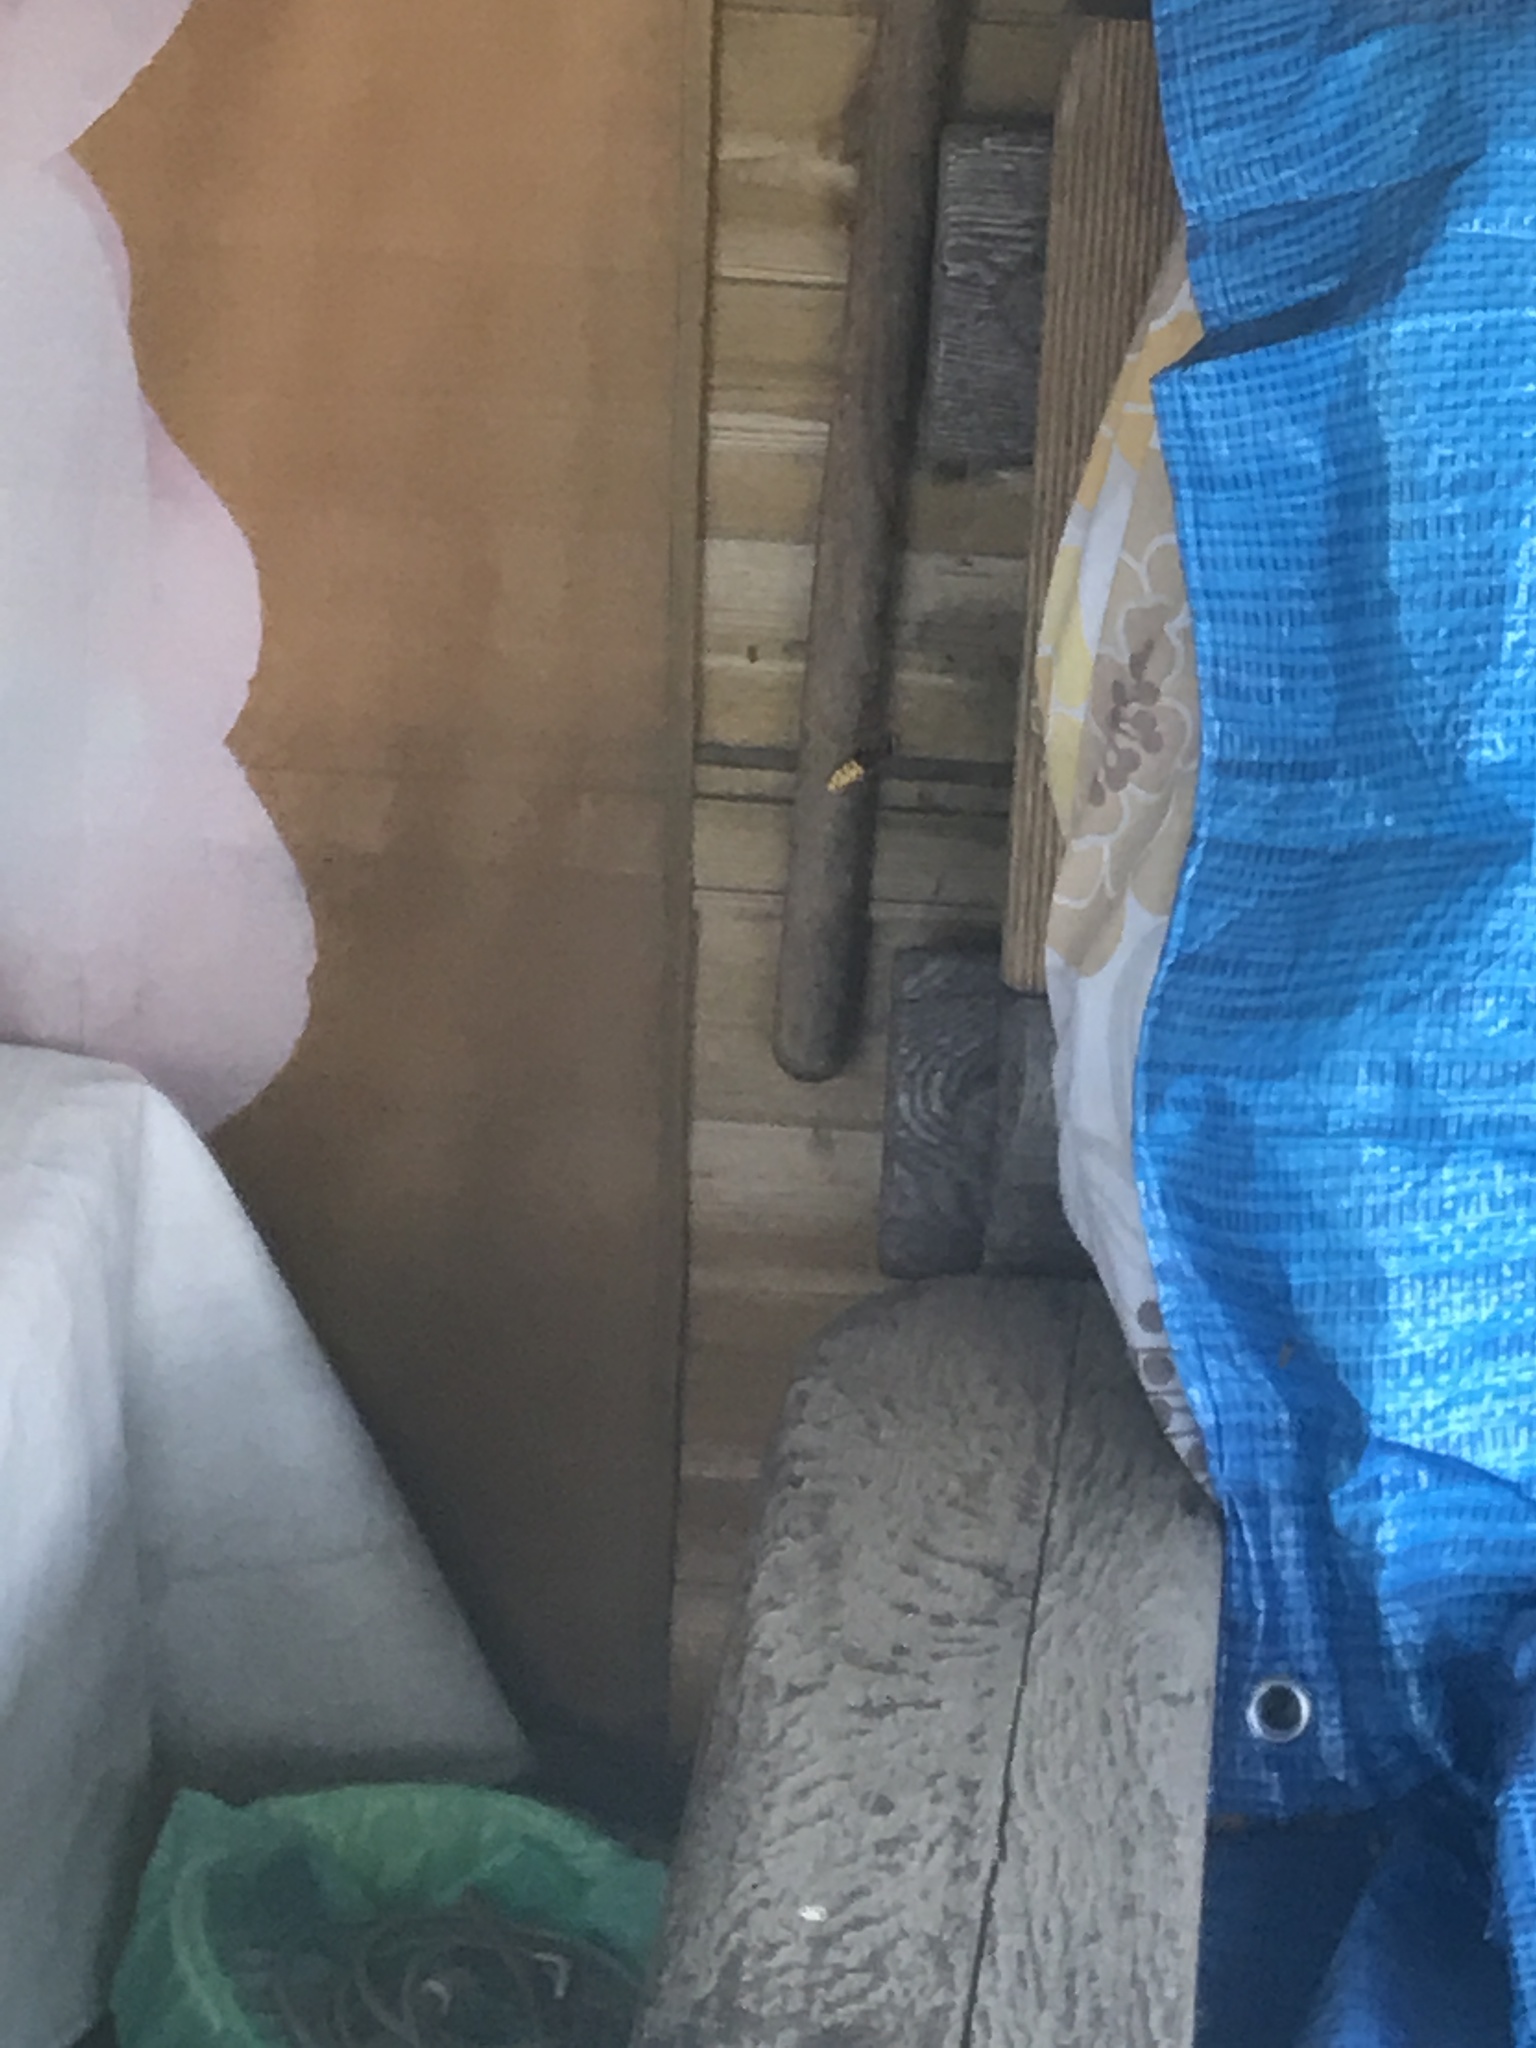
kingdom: Animalia
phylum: Arthropoda
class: Insecta
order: Hymenoptera
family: Vespidae
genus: Vespa
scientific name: Vespa crabro
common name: Hornet
